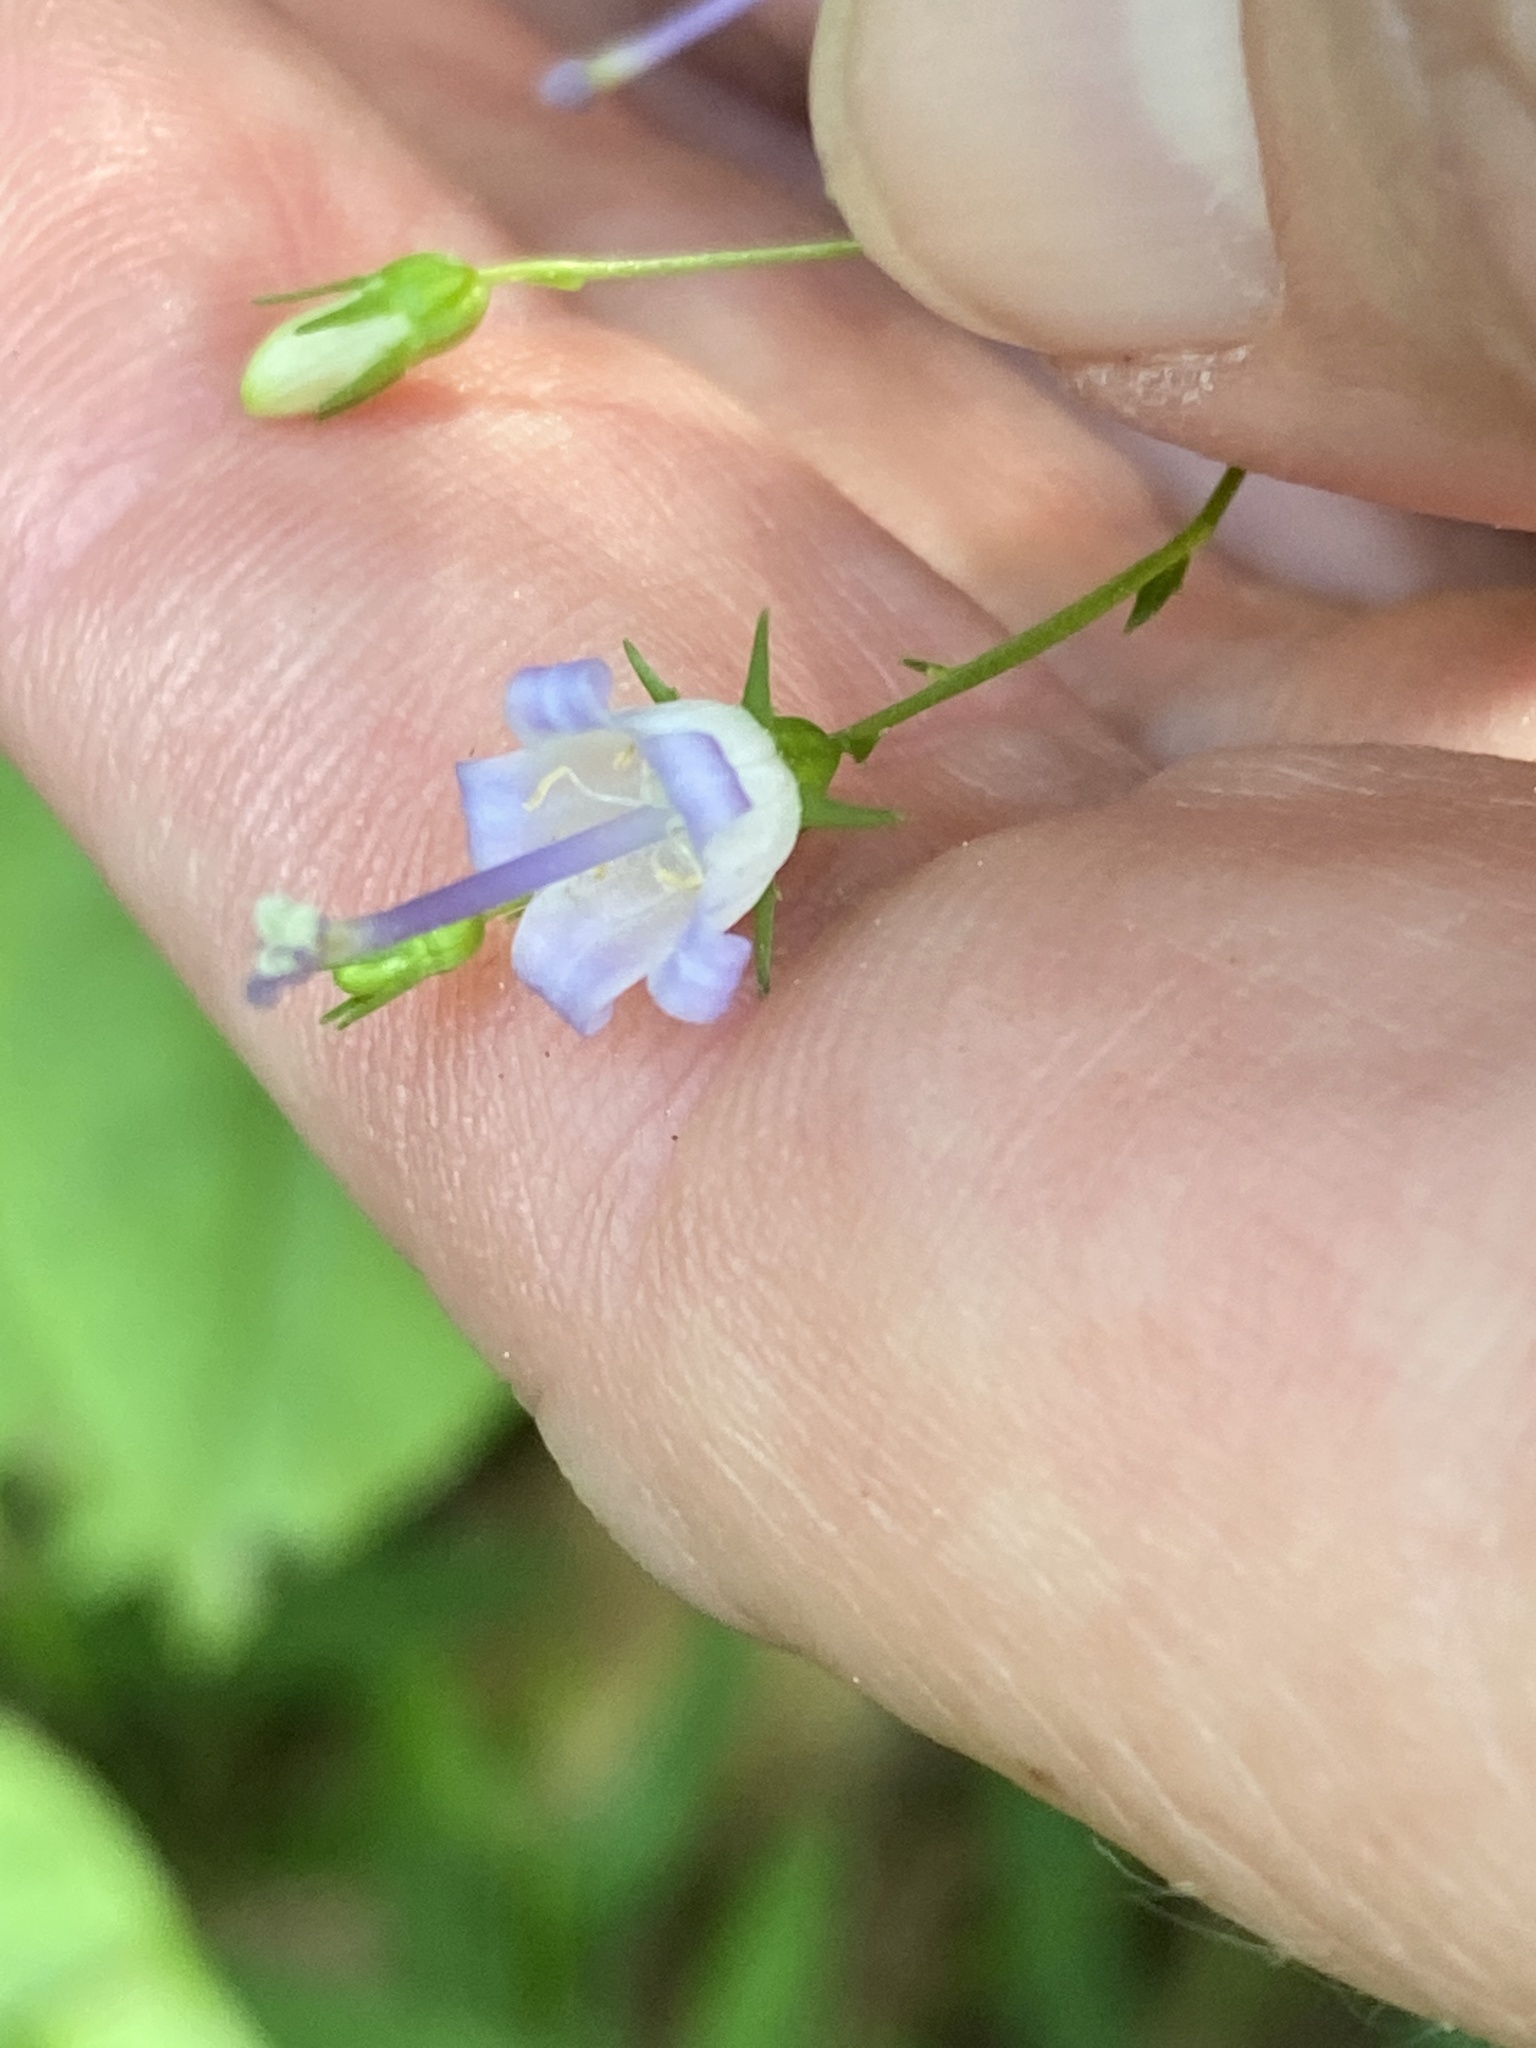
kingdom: Plantae
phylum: Tracheophyta
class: Magnoliopsida
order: Asterales
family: Campanulaceae
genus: Campanula
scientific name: Campanula divaricata
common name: Appalachian bellflower
